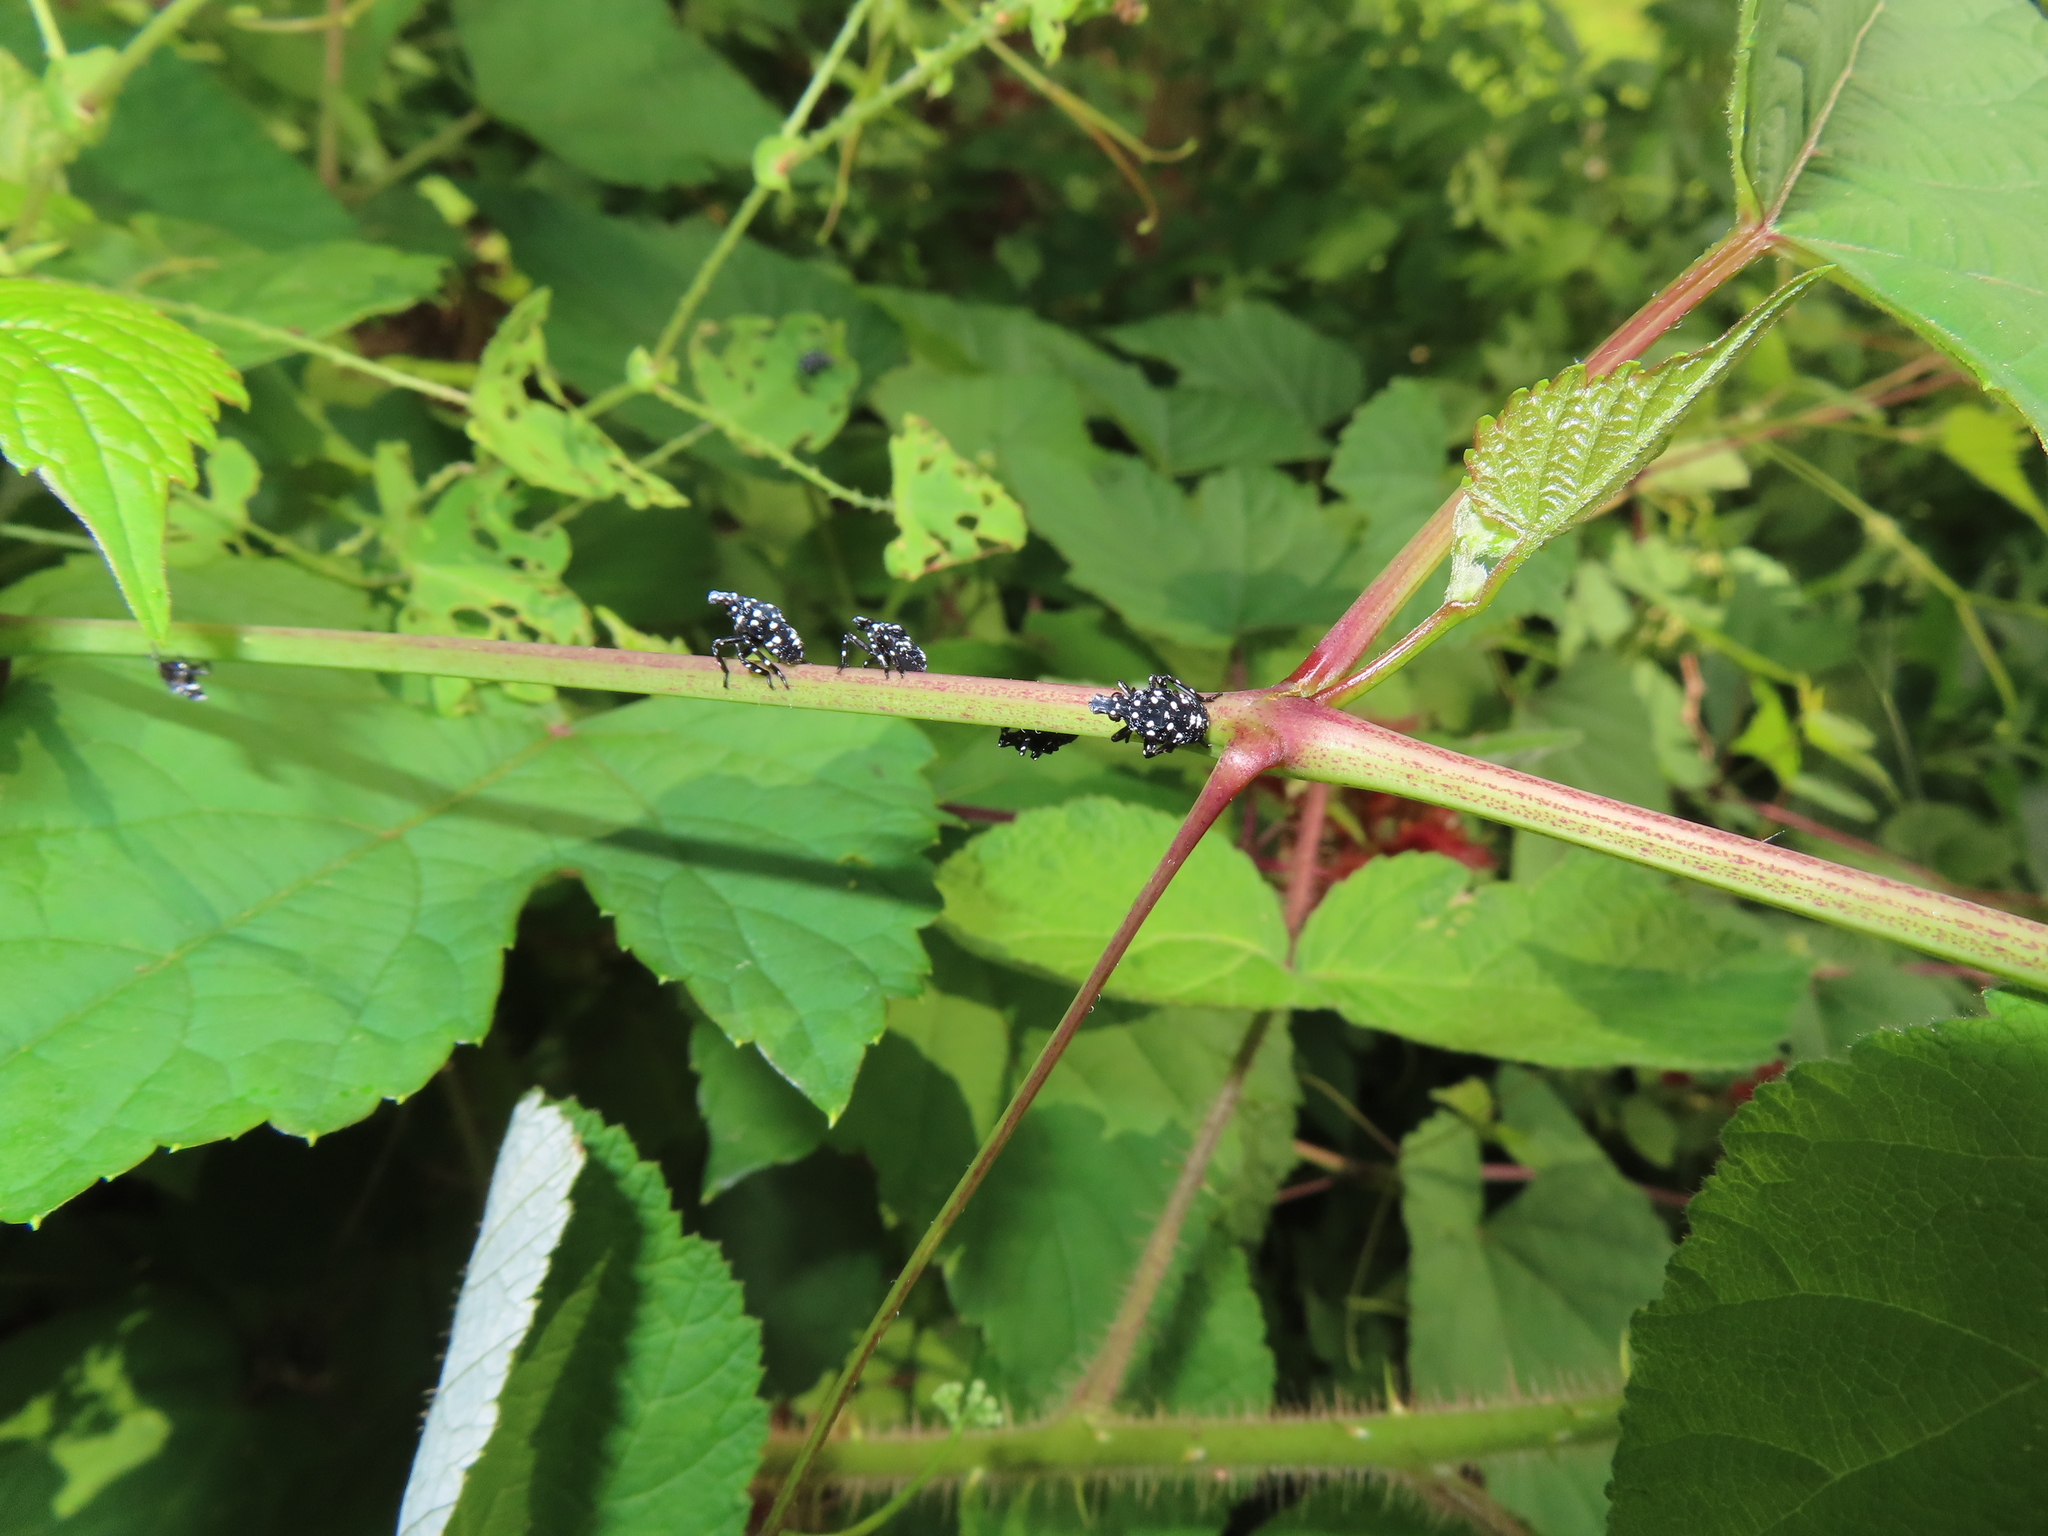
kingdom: Animalia
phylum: Arthropoda
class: Insecta
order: Hemiptera
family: Fulgoridae
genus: Lycorma
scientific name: Lycorma delicatula
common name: Spotted lanternfly
